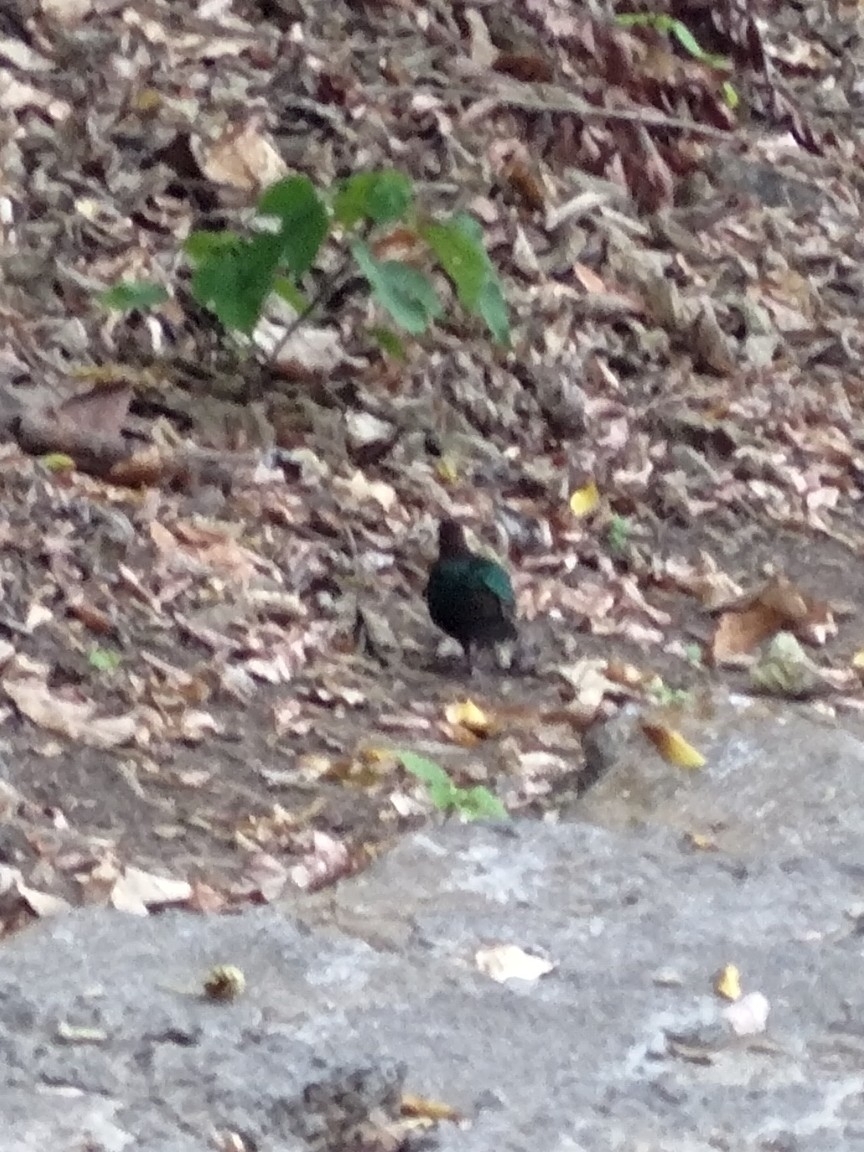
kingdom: Animalia
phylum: Chordata
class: Aves
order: Columbiformes
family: Columbidae
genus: Chalcophaps
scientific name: Chalcophaps indica
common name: Common emerald dove
